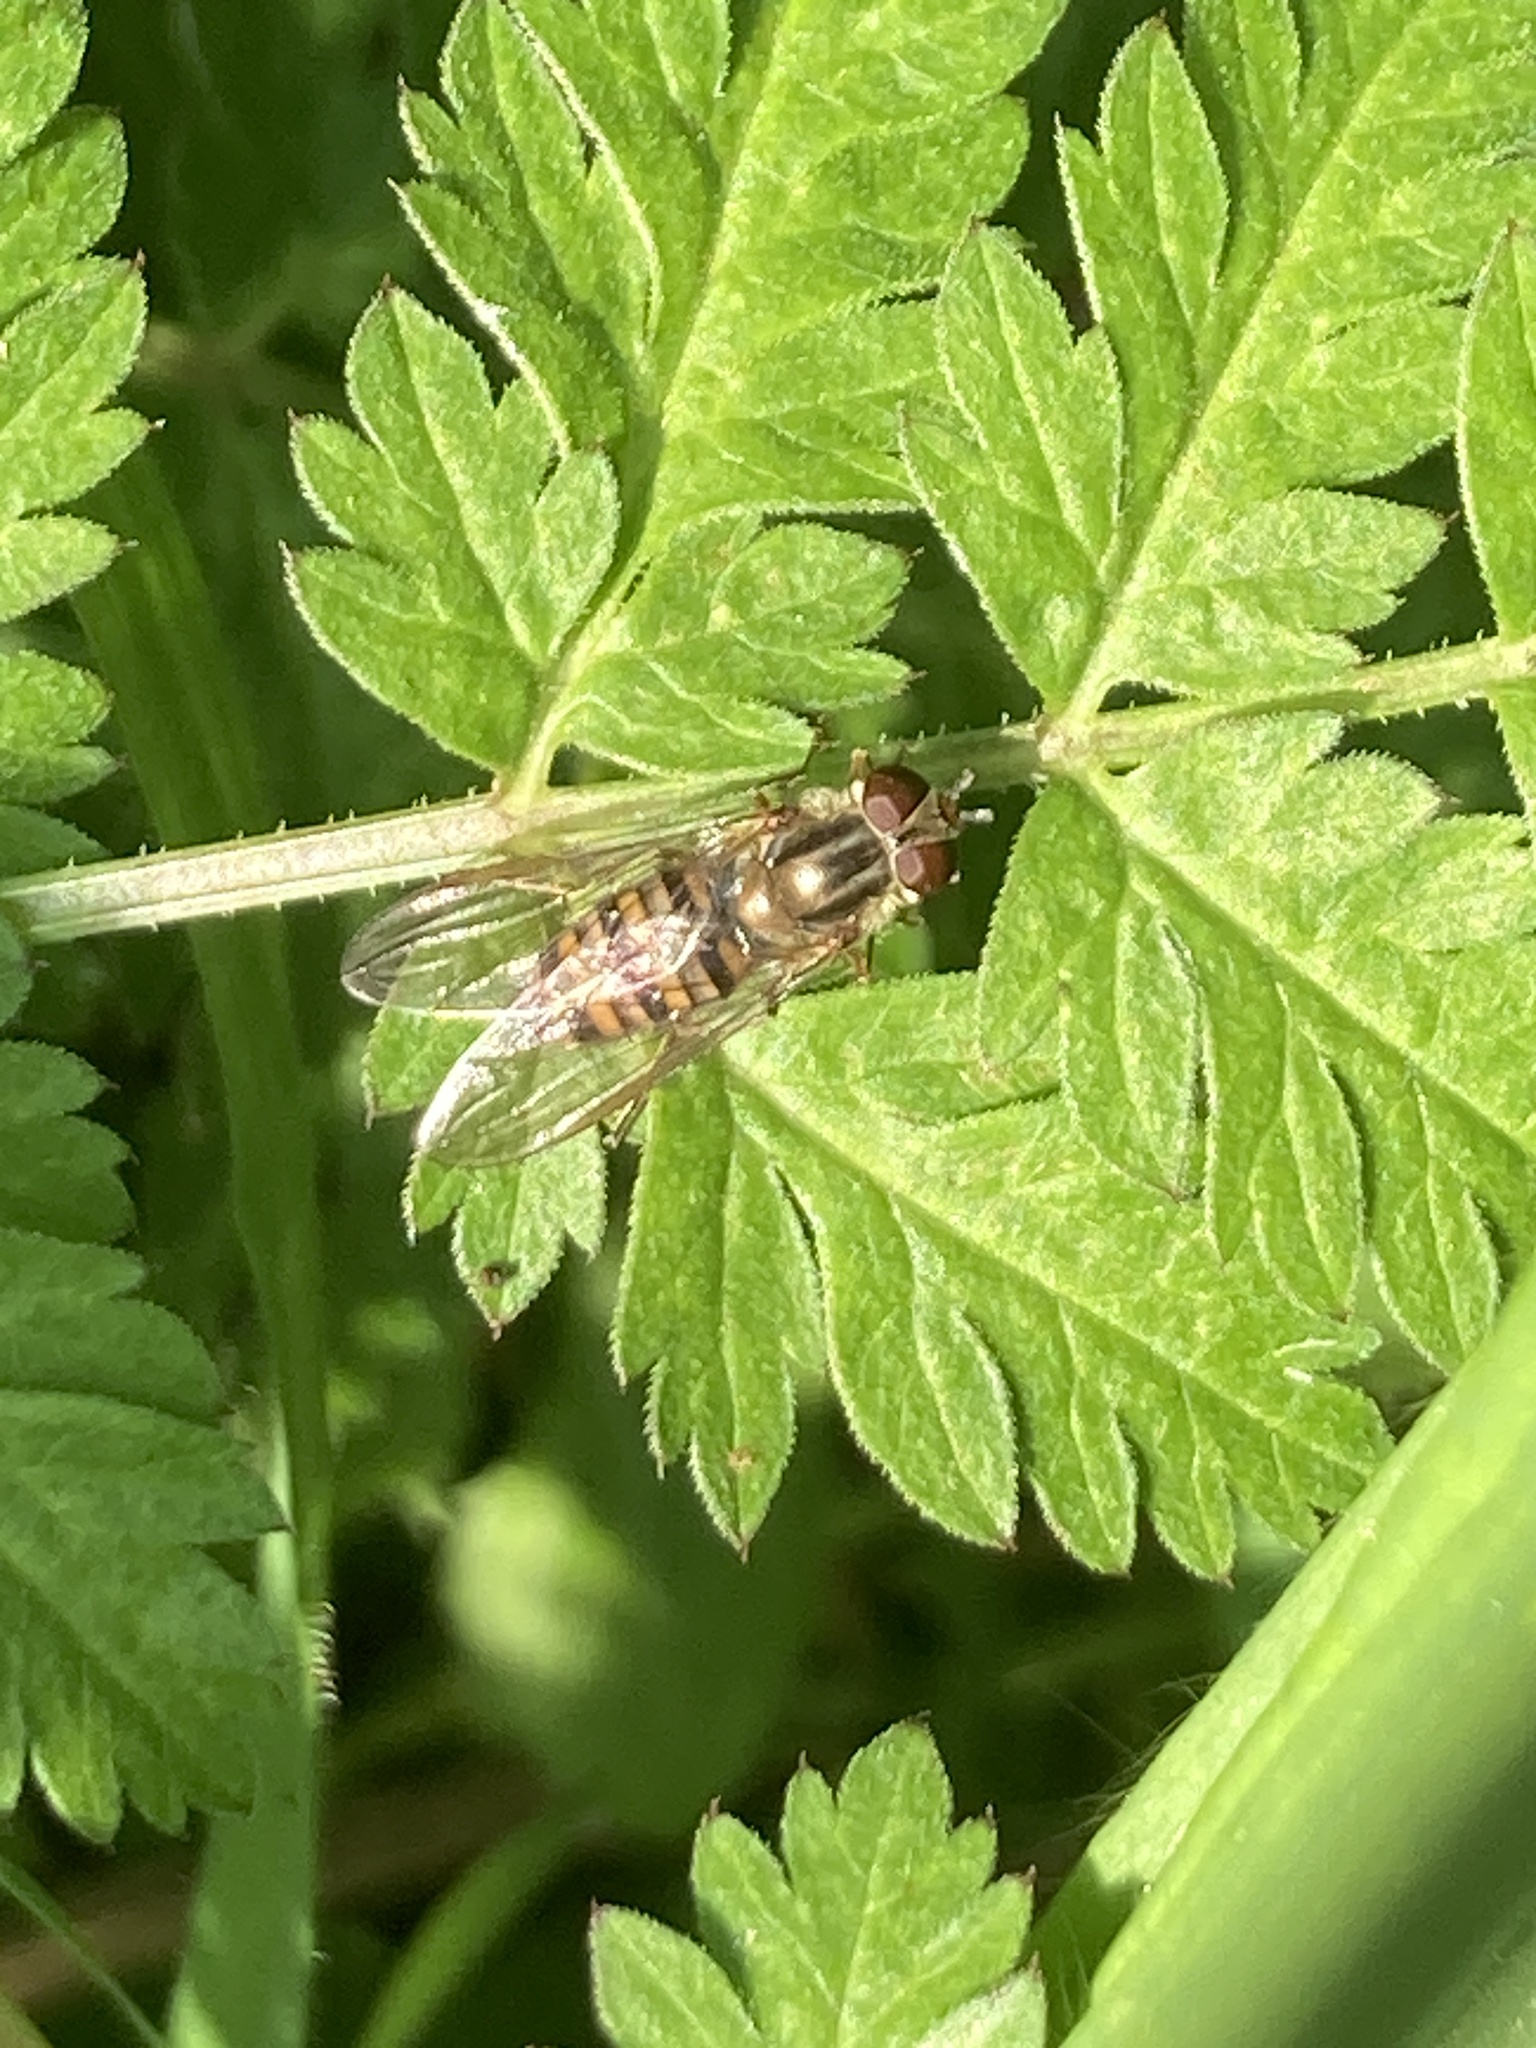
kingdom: Animalia
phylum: Arthropoda
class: Insecta
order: Diptera
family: Syrphidae
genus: Episyrphus
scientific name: Episyrphus balteatus
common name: Marmalade hoverfly
